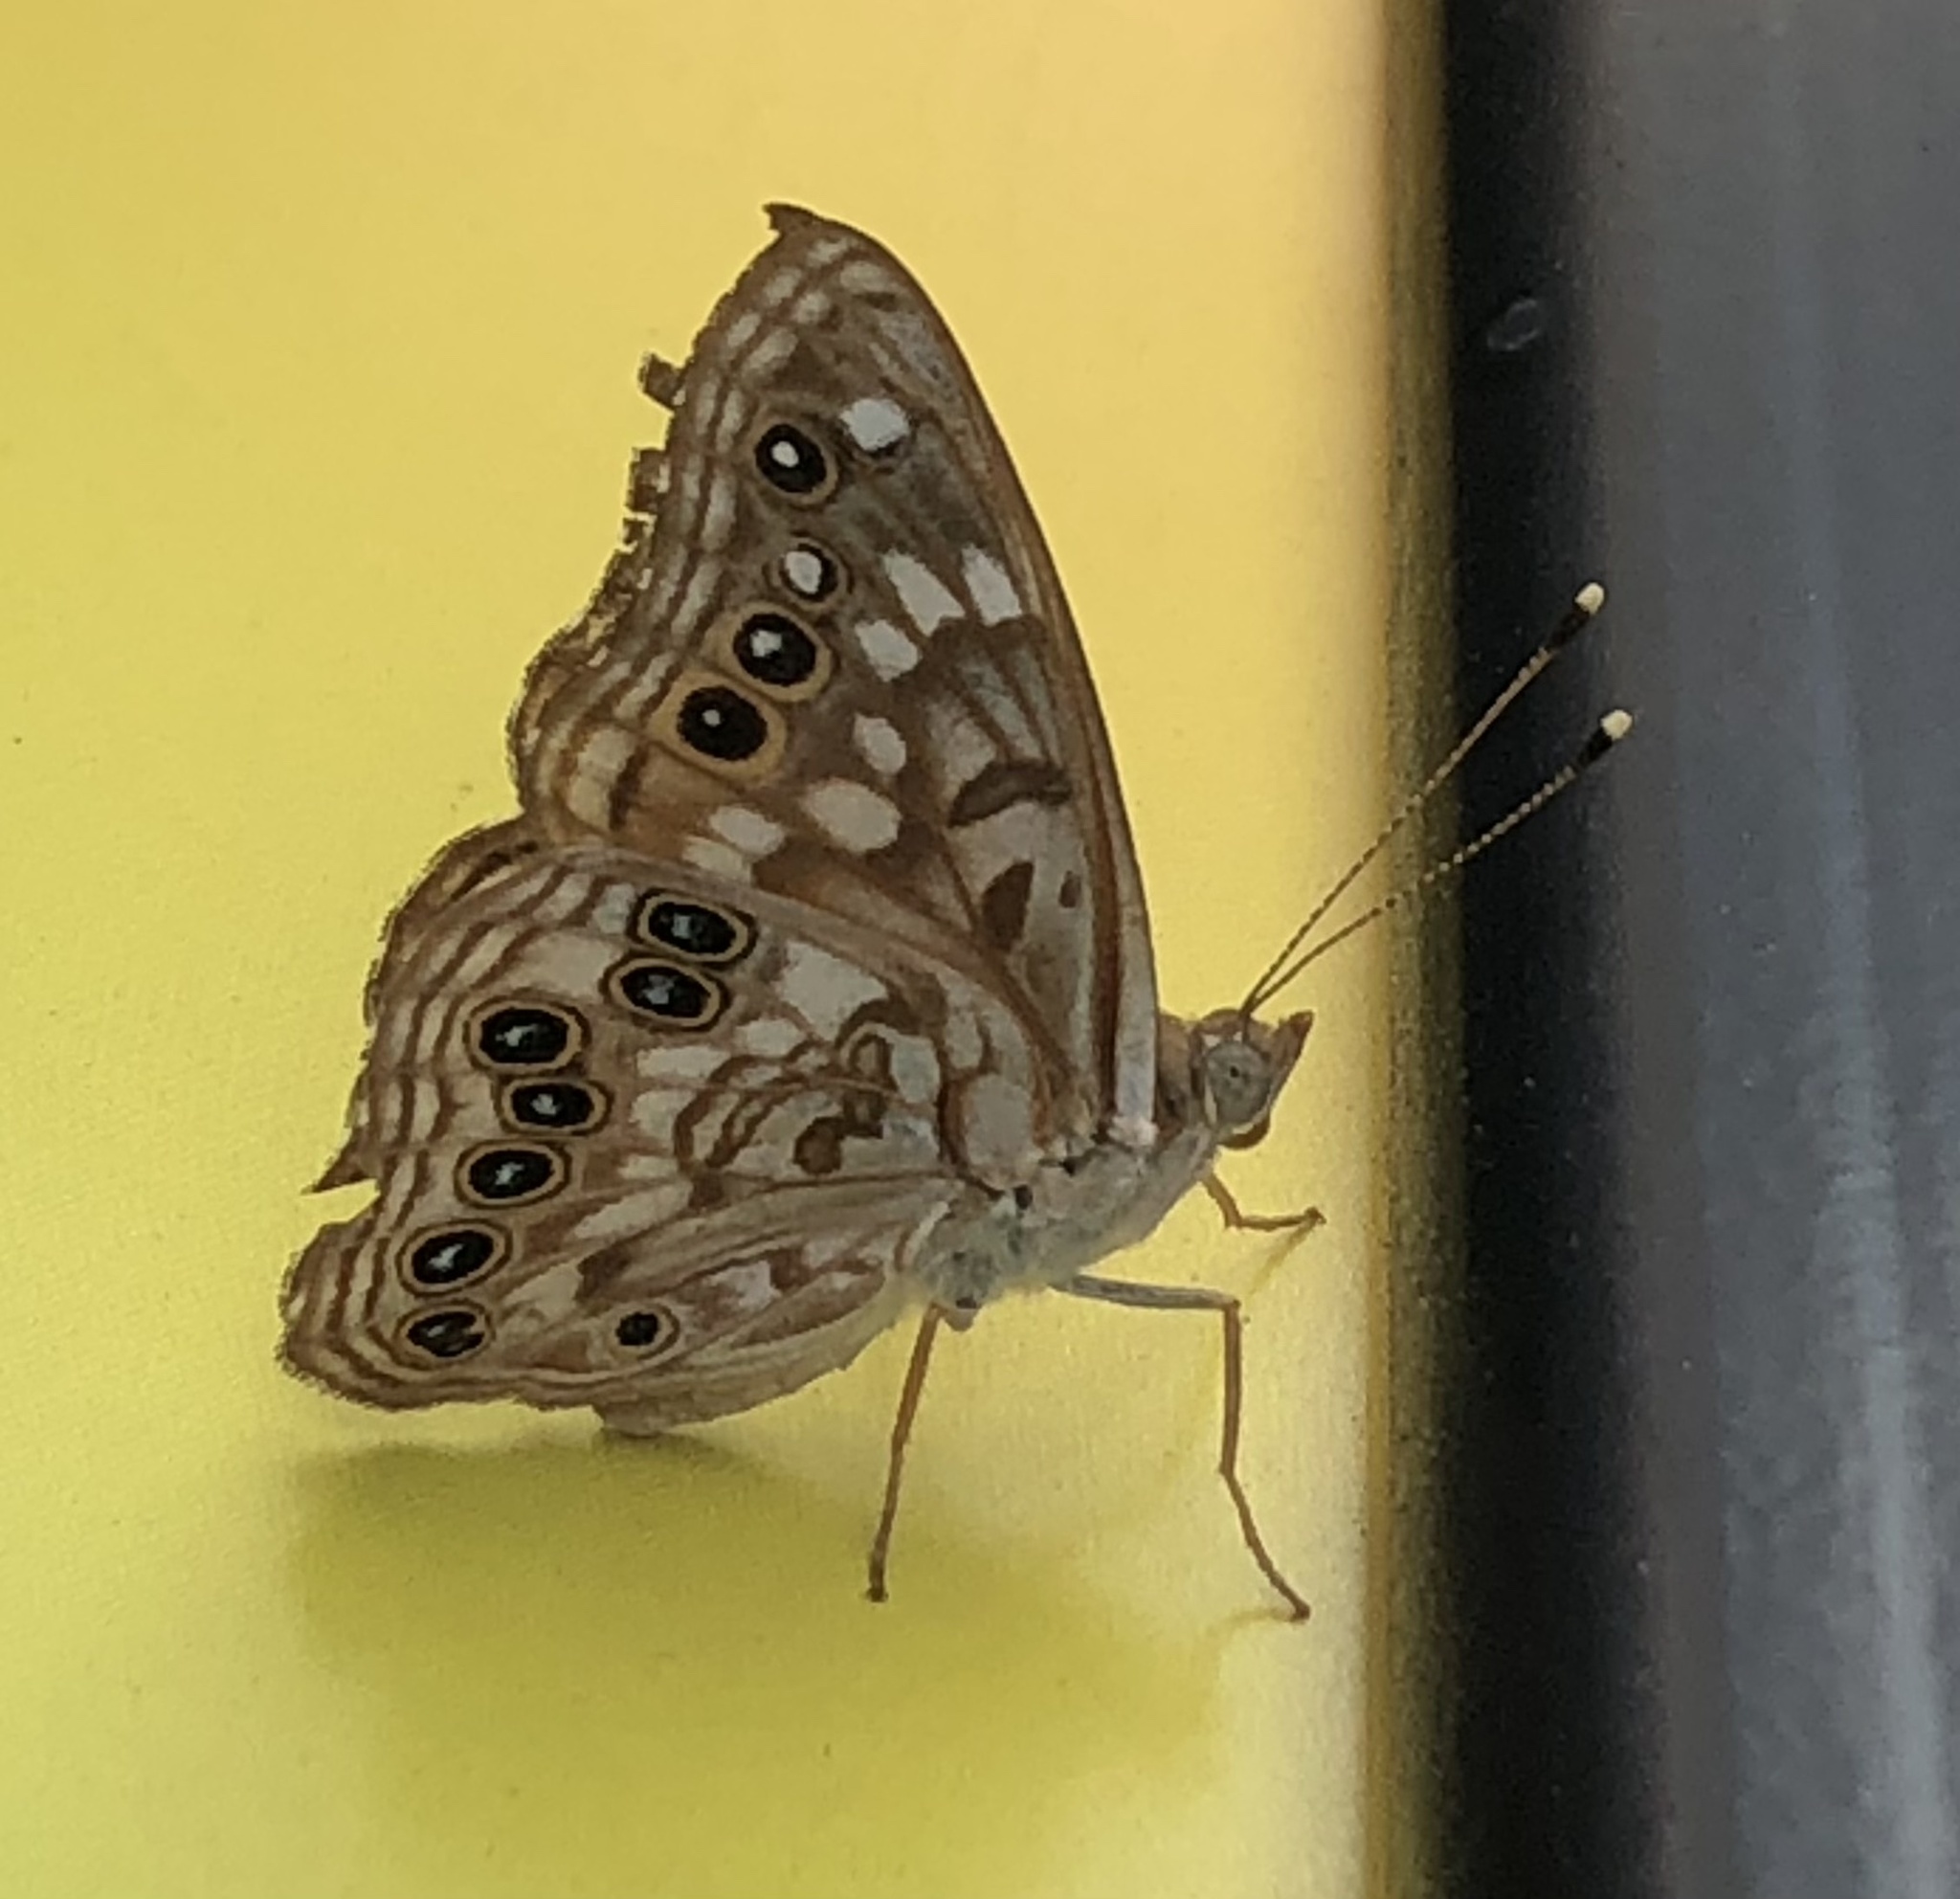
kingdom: Animalia
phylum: Arthropoda
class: Insecta
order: Lepidoptera
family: Nymphalidae
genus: Asterocampa
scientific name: Asterocampa celtis
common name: Hackberry emperor
